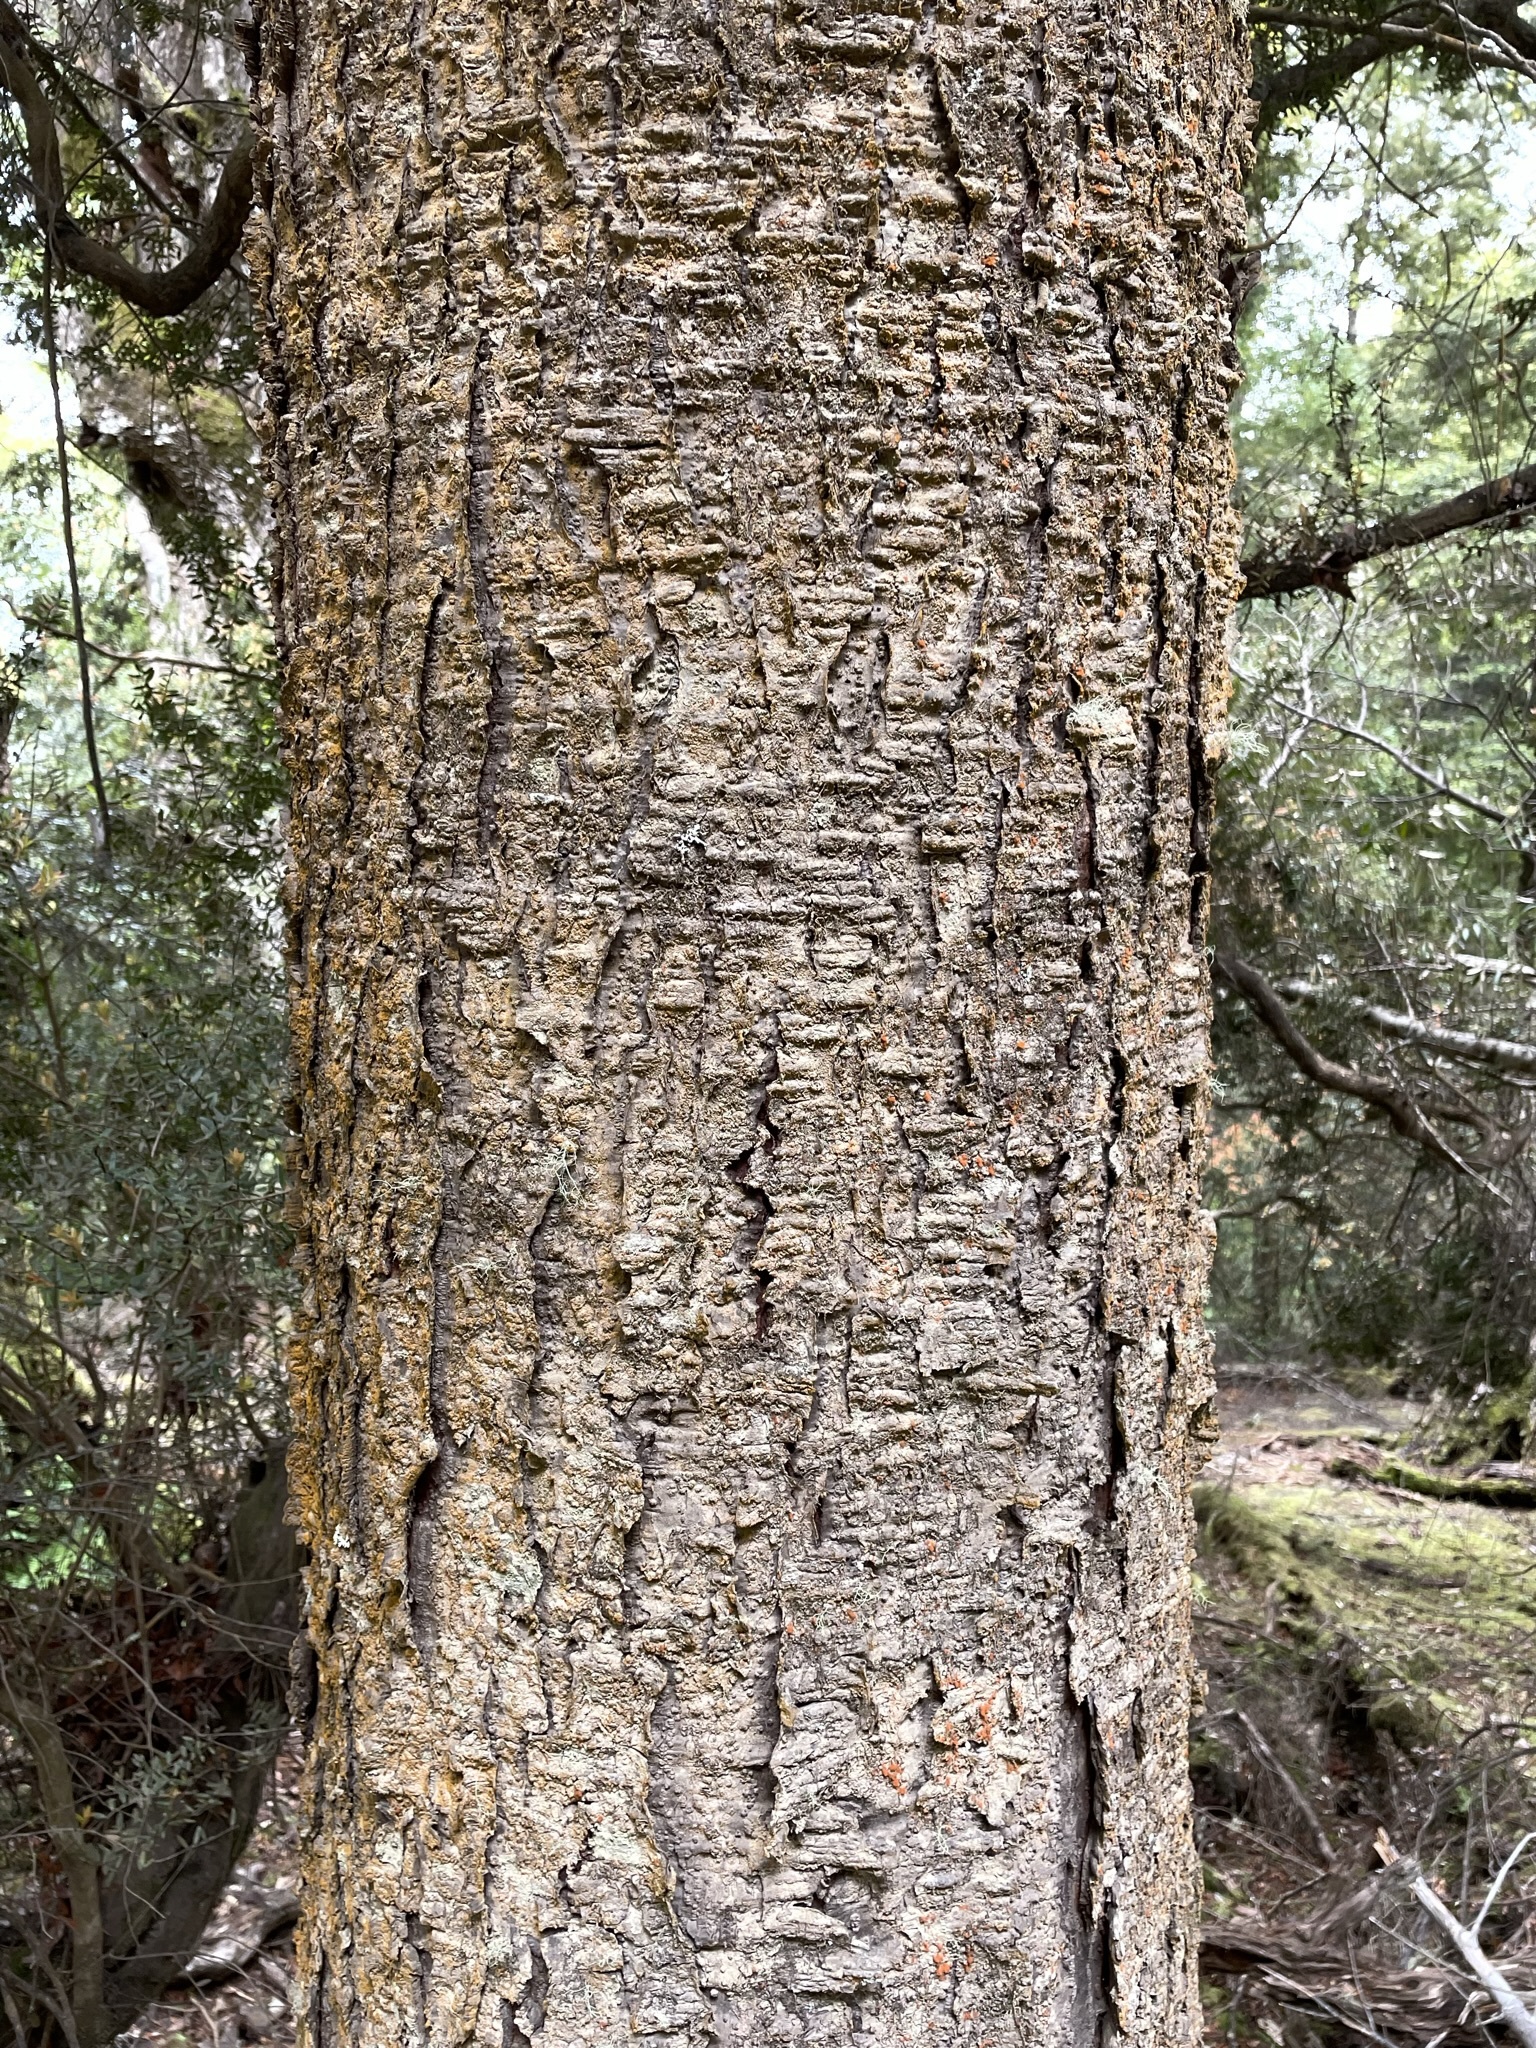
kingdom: Plantae
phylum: Tracheophyta
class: Pinopsida
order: Pinales
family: Phyllocladaceae
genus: Phyllocladus
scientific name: Phyllocladus aspleniifolius
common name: Celery-top pine
